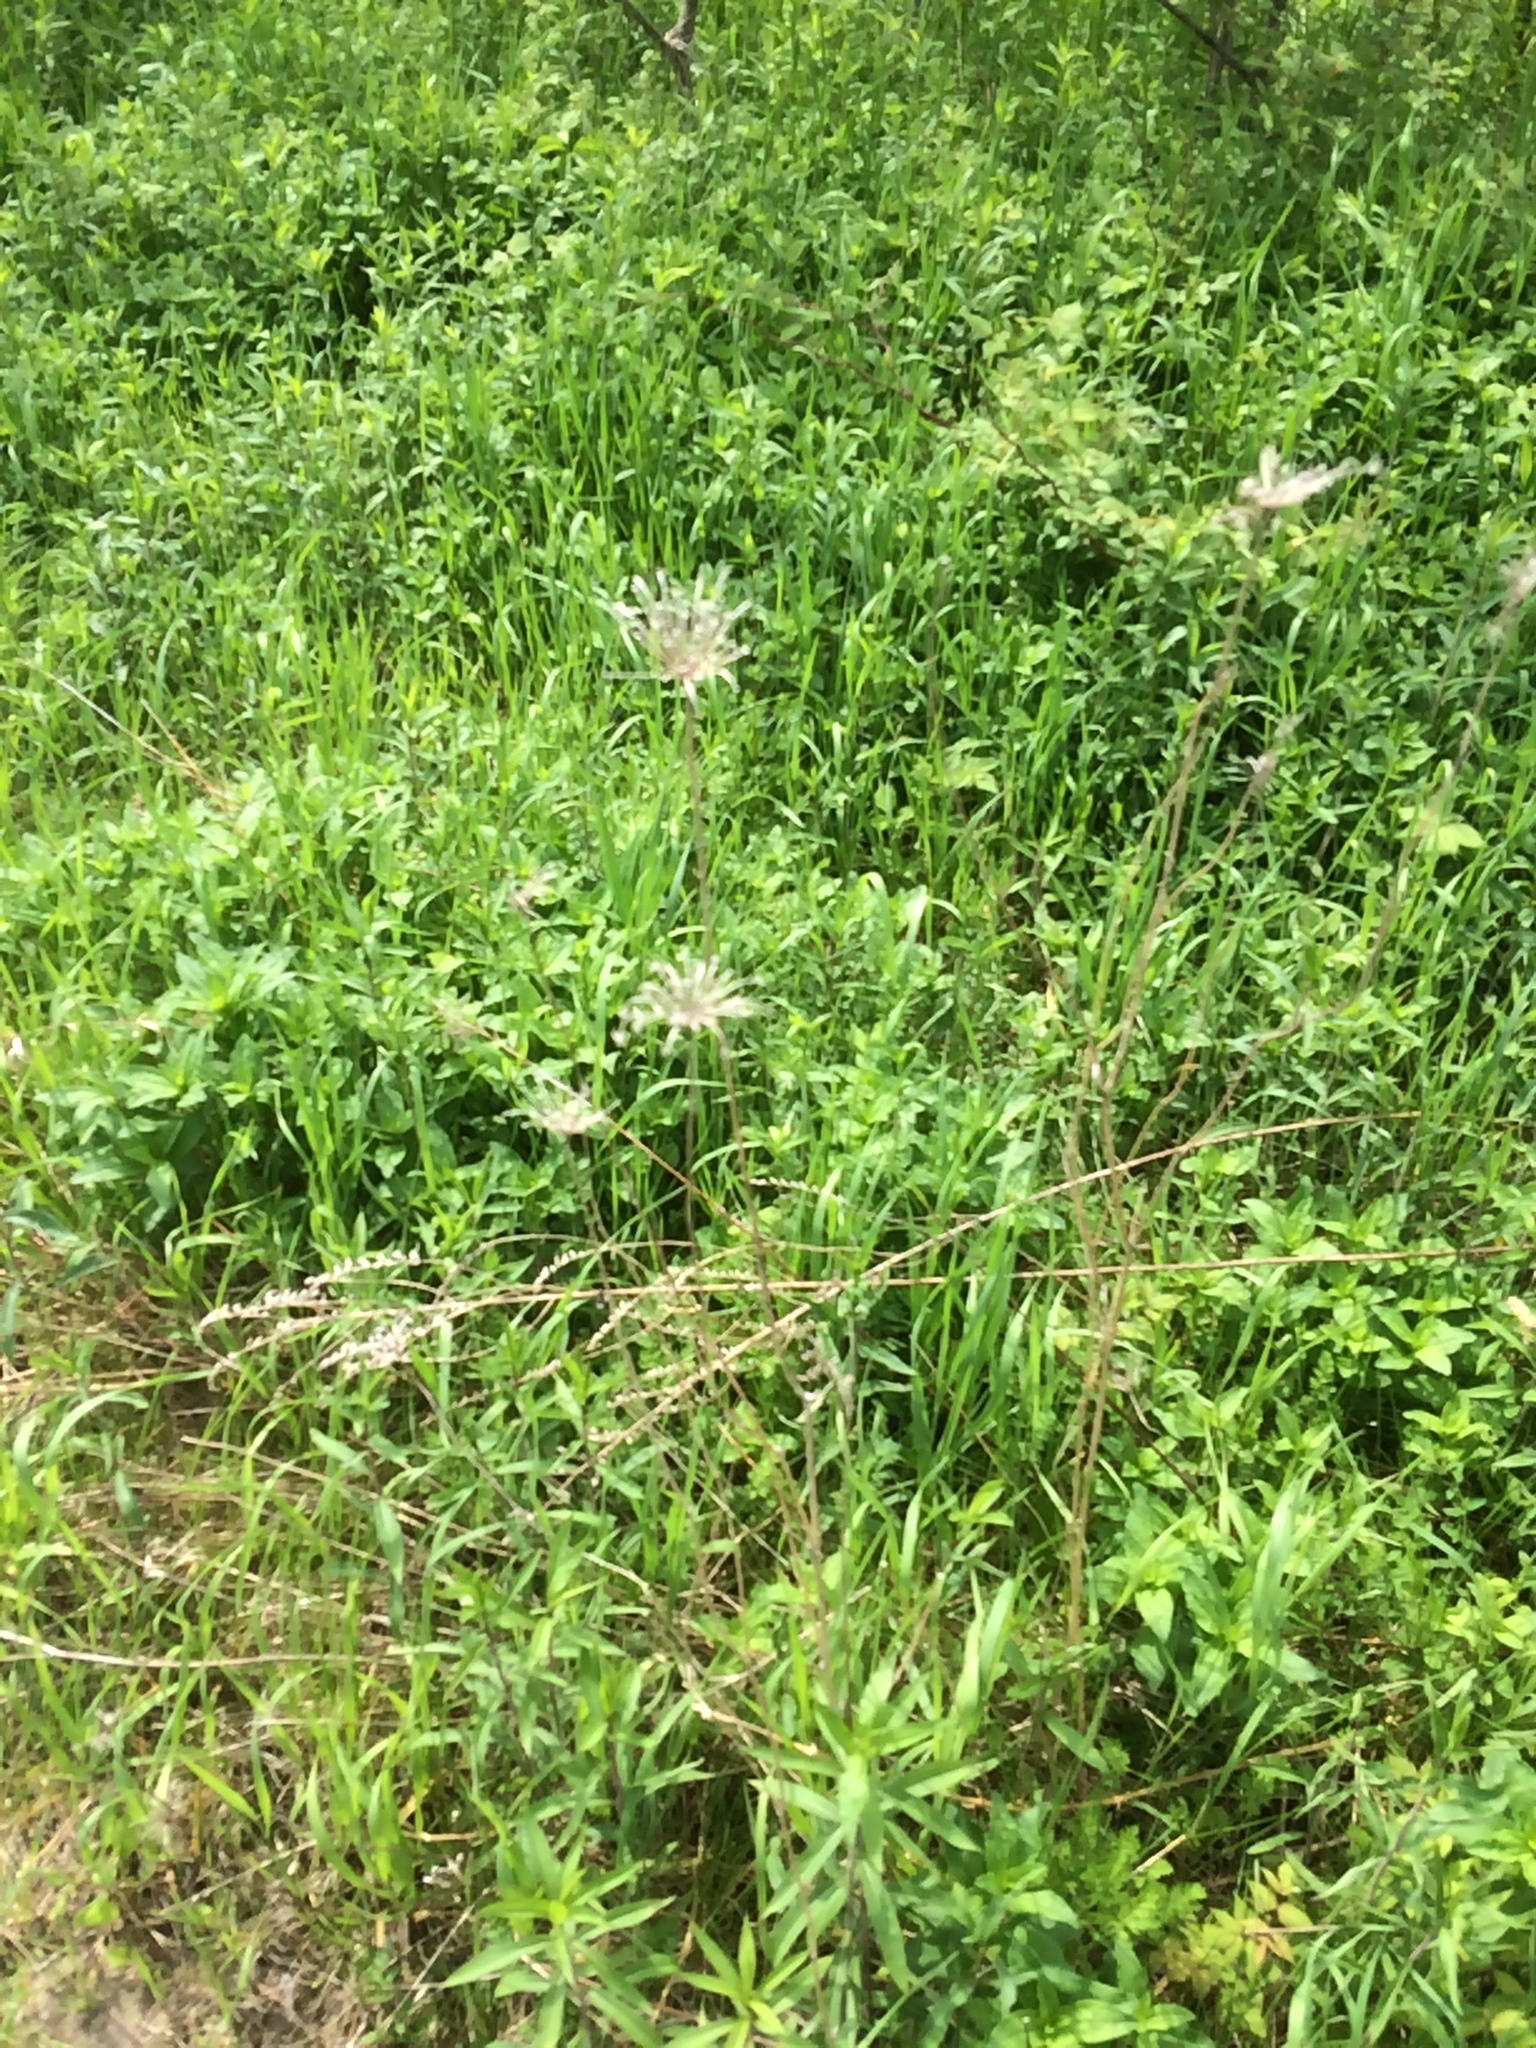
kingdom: Plantae
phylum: Tracheophyta
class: Magnoliopsida
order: Apiales
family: Apiaceae
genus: Daucus
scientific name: Daucus carota
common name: Wild carrot
